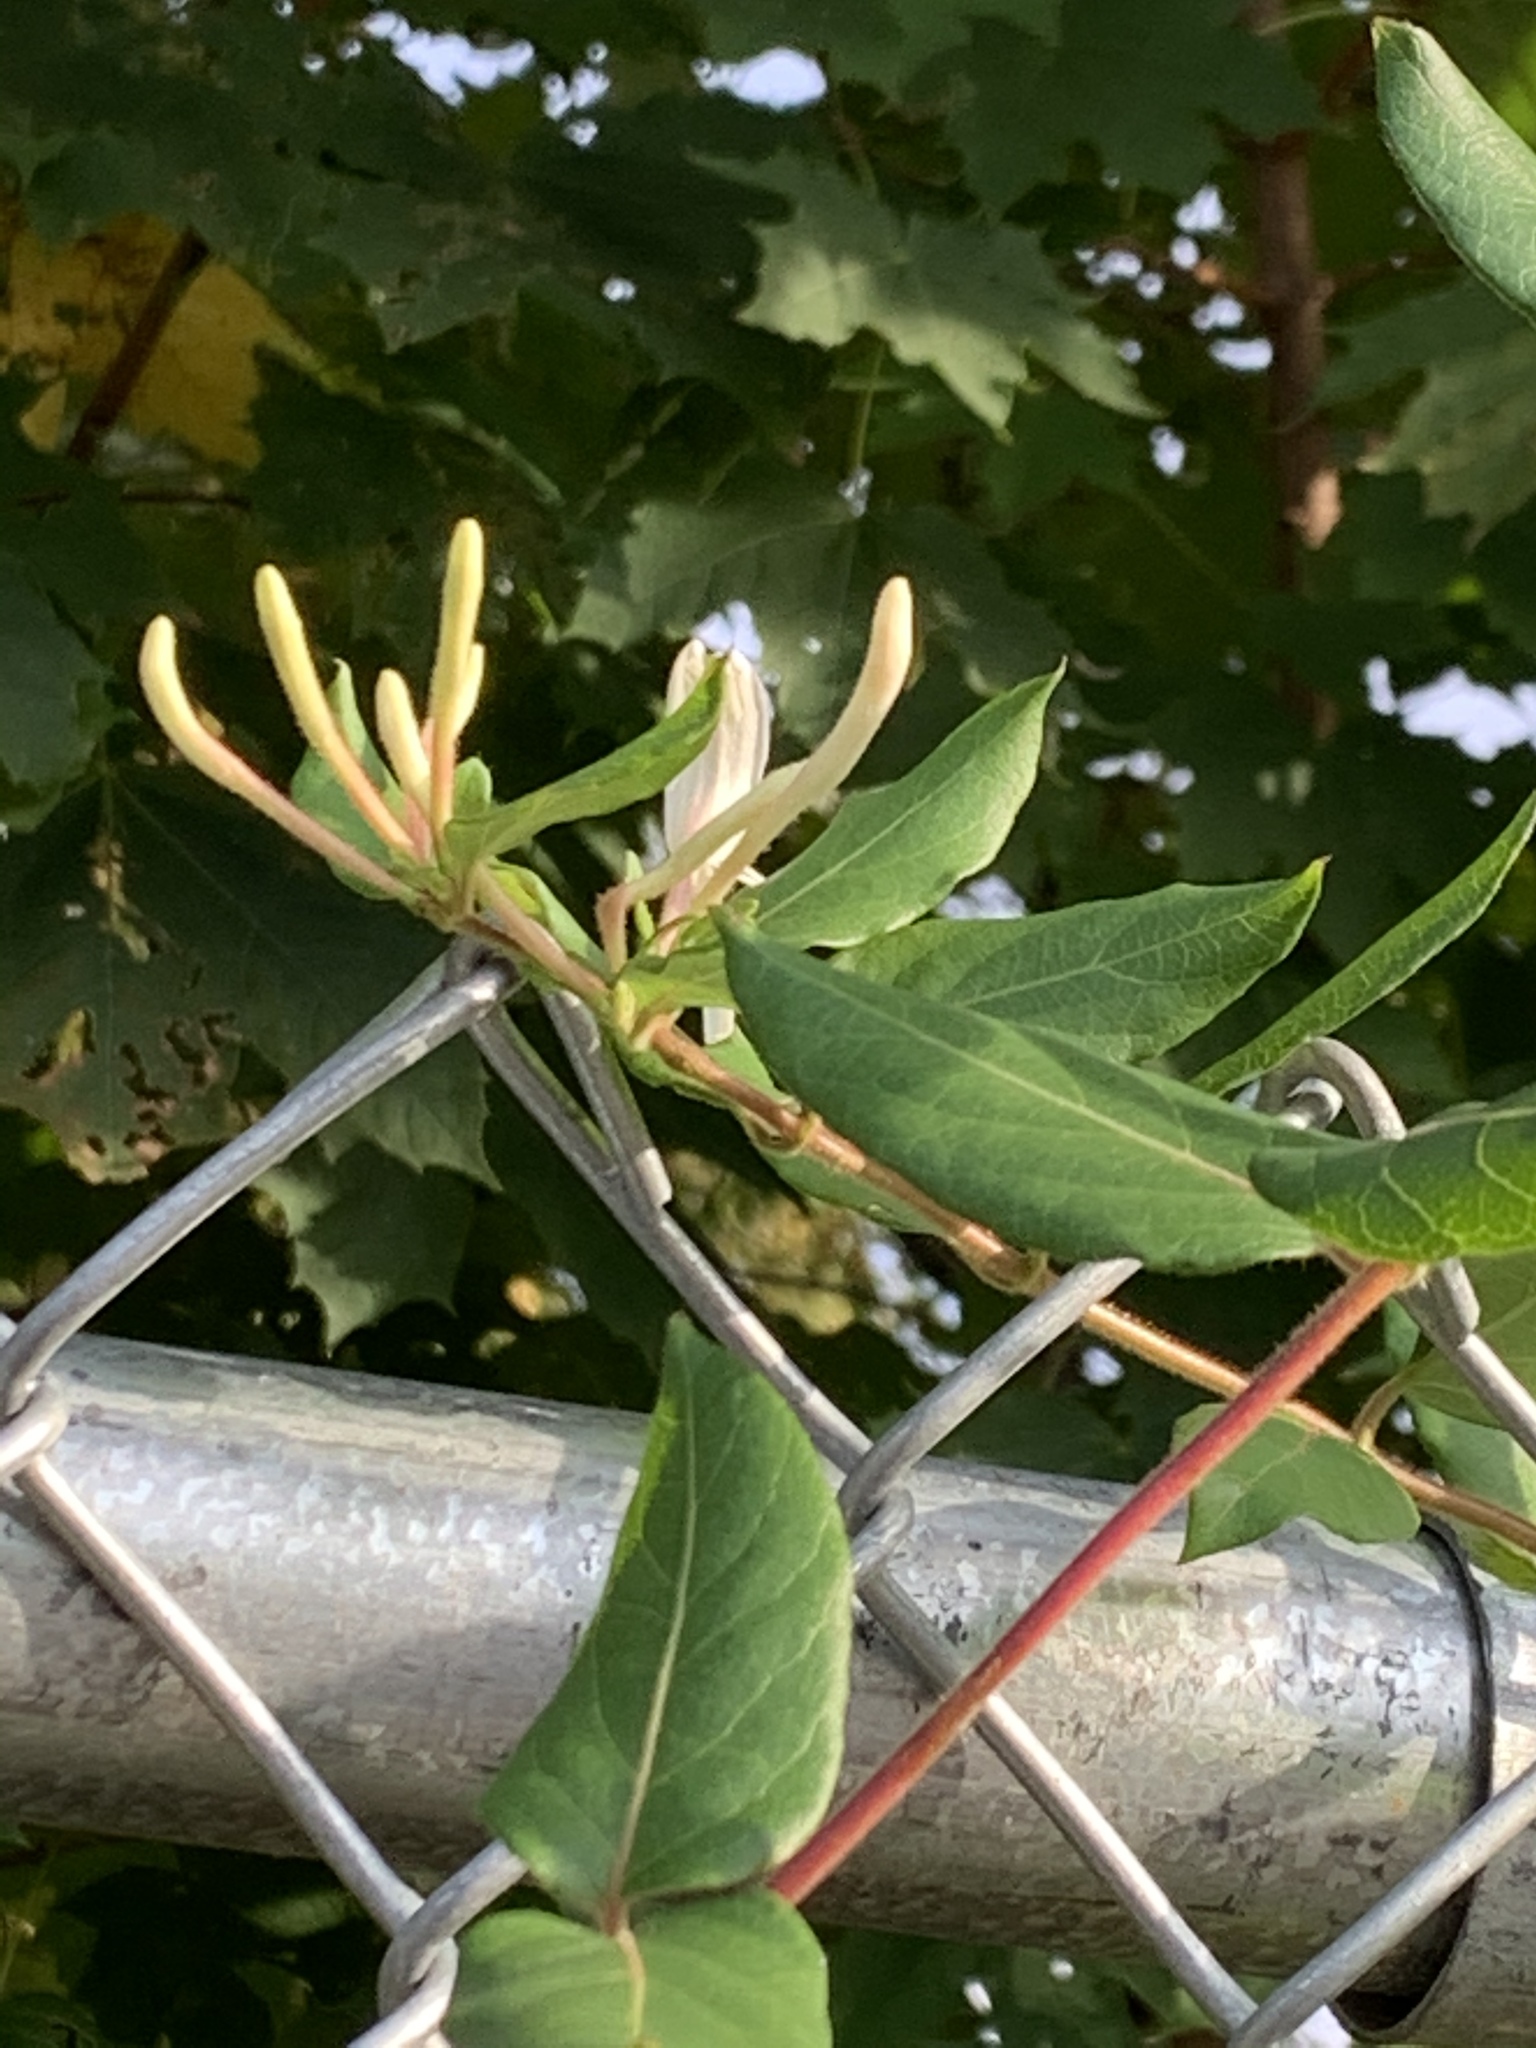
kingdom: Plantae
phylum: Tracheophyta
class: Magnoliopsida
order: Dipsacales
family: Caprifoliaceae
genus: Lonicera
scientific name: Lonicera japonica
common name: Japanese honeysuckle
